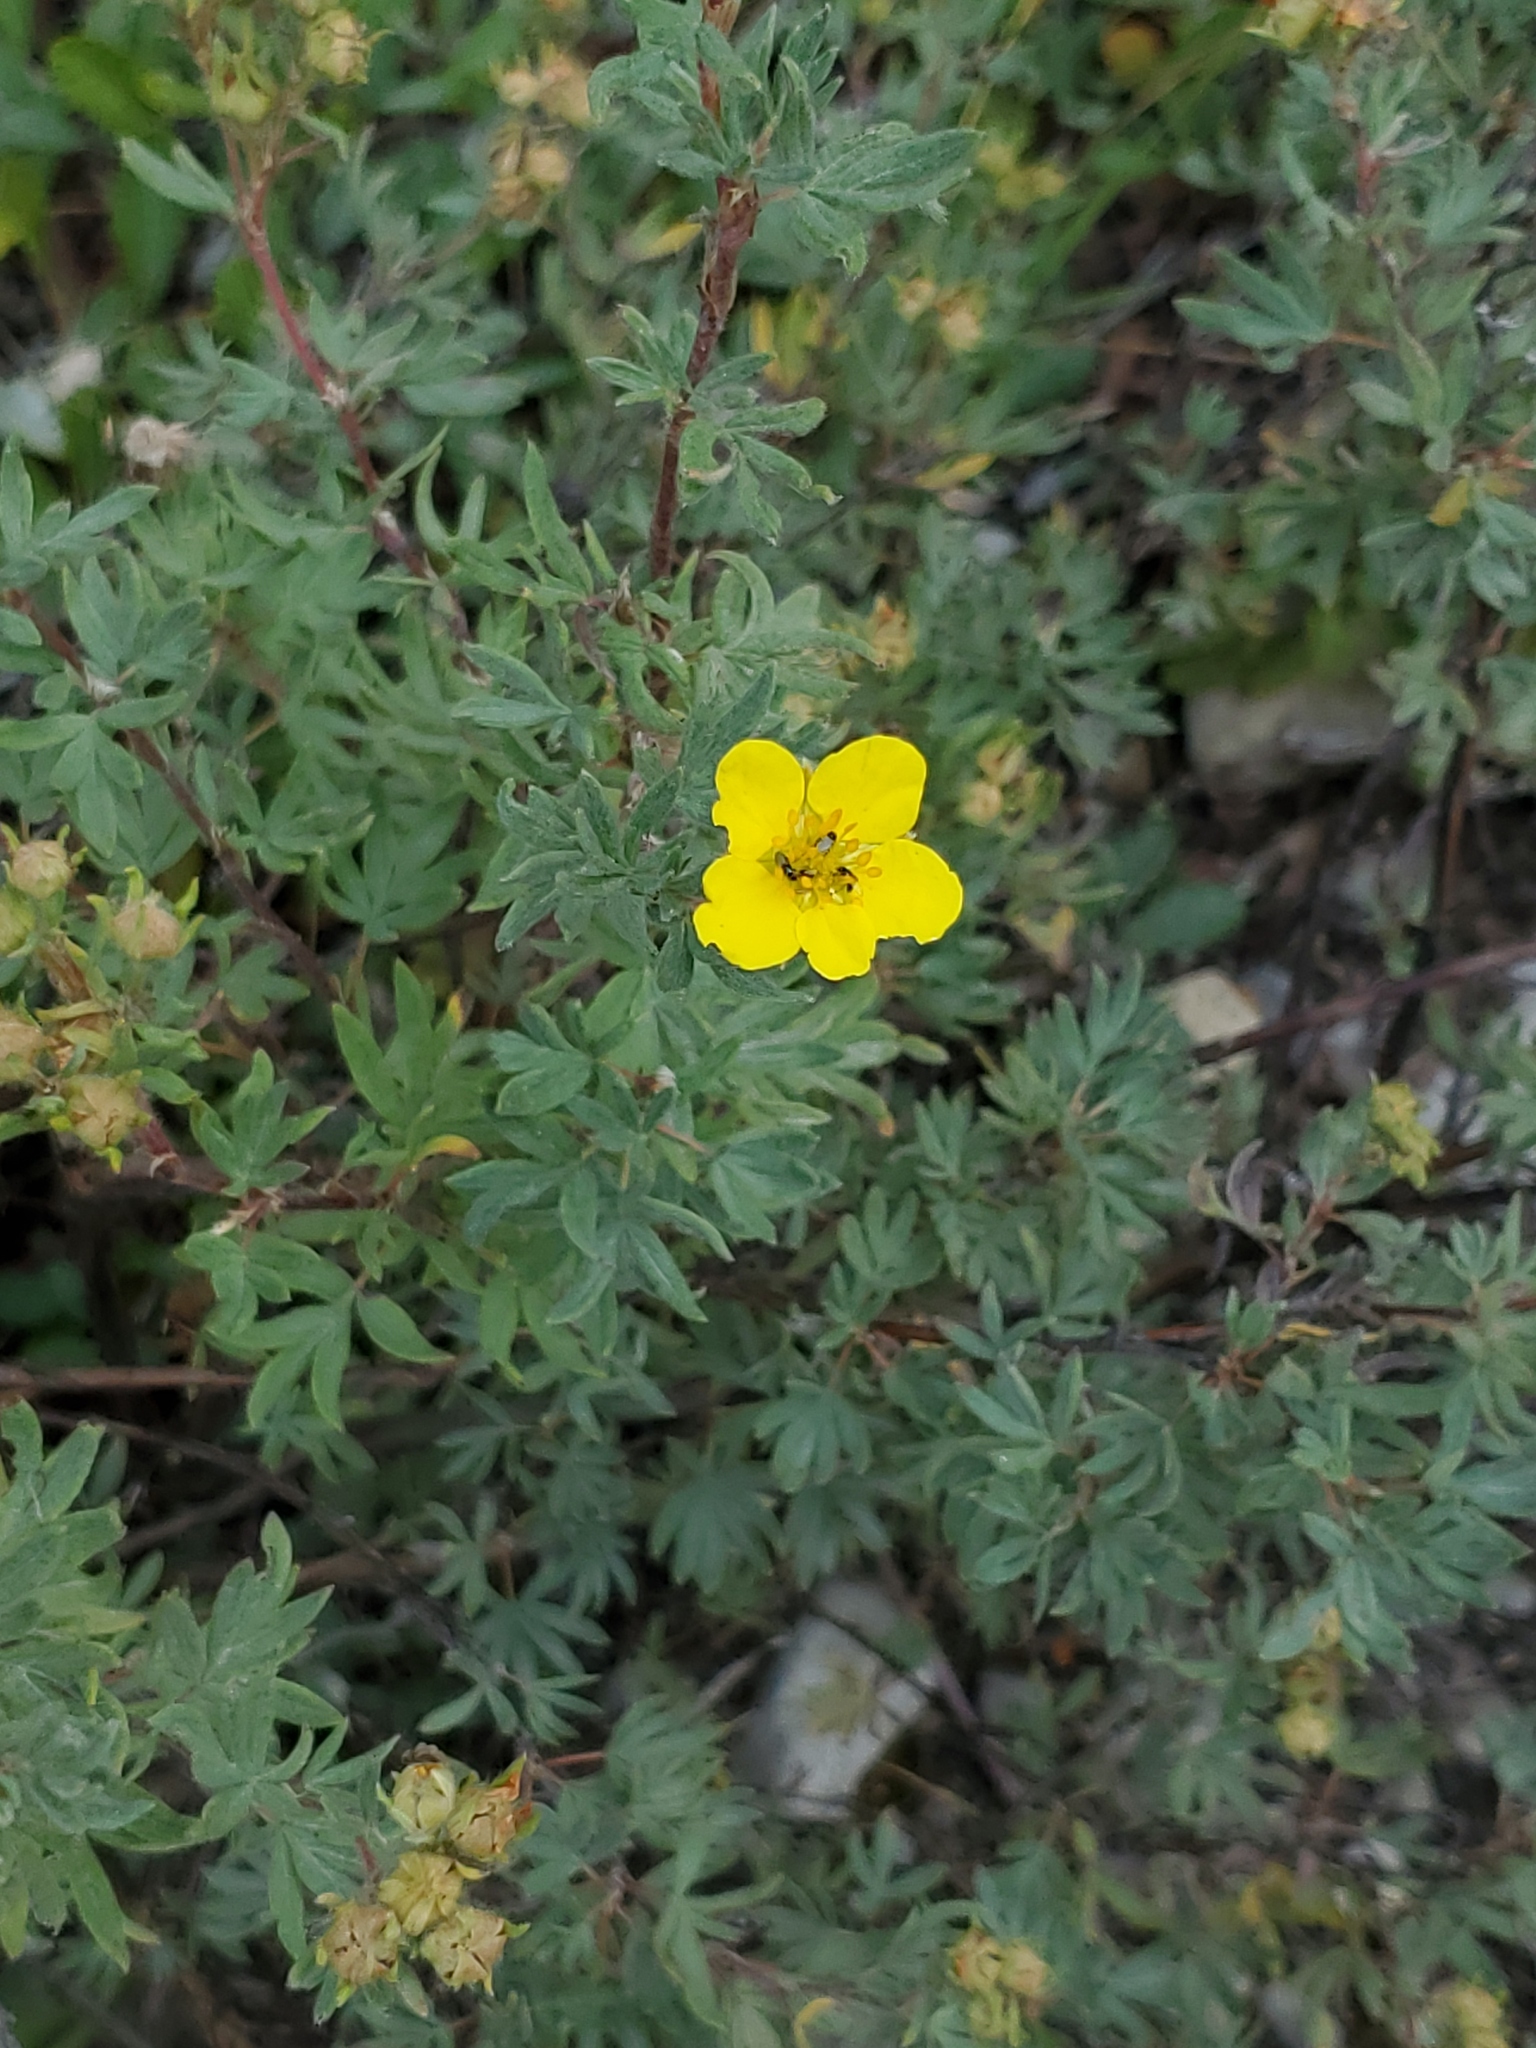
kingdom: Plantae
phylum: Tracheophyta
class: Magnoliopsida
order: Rosales
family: Rosaceae
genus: Dasiphora
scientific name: Dasiphora fruticosa
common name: Shrubby cinquefoil
